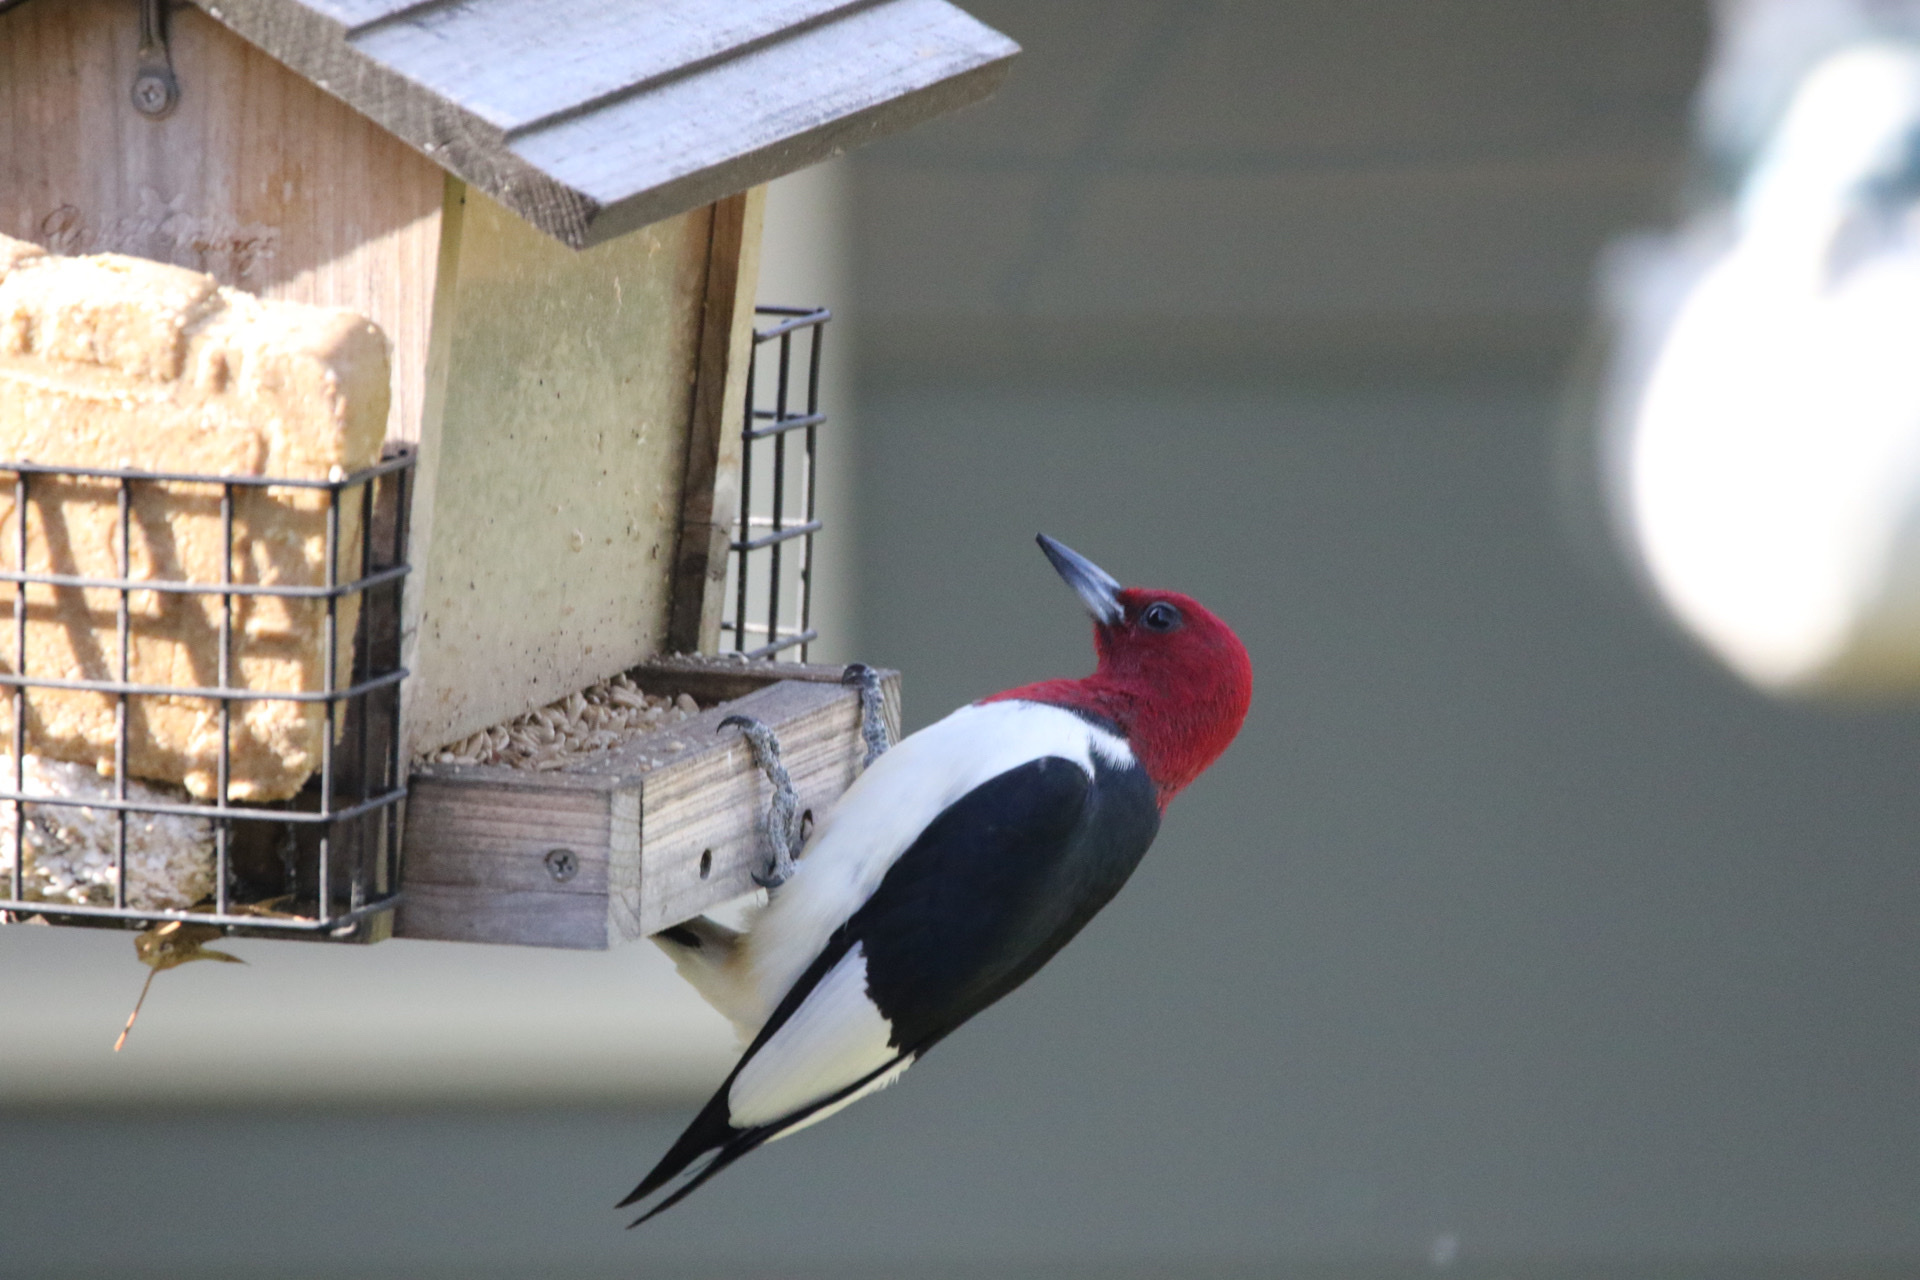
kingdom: Animalia
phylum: Chordata
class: Aves
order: Piciformes
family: Picidae
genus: Melanerpes
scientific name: Melanerpes erythrocephalus
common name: Red-headed woodpecker
